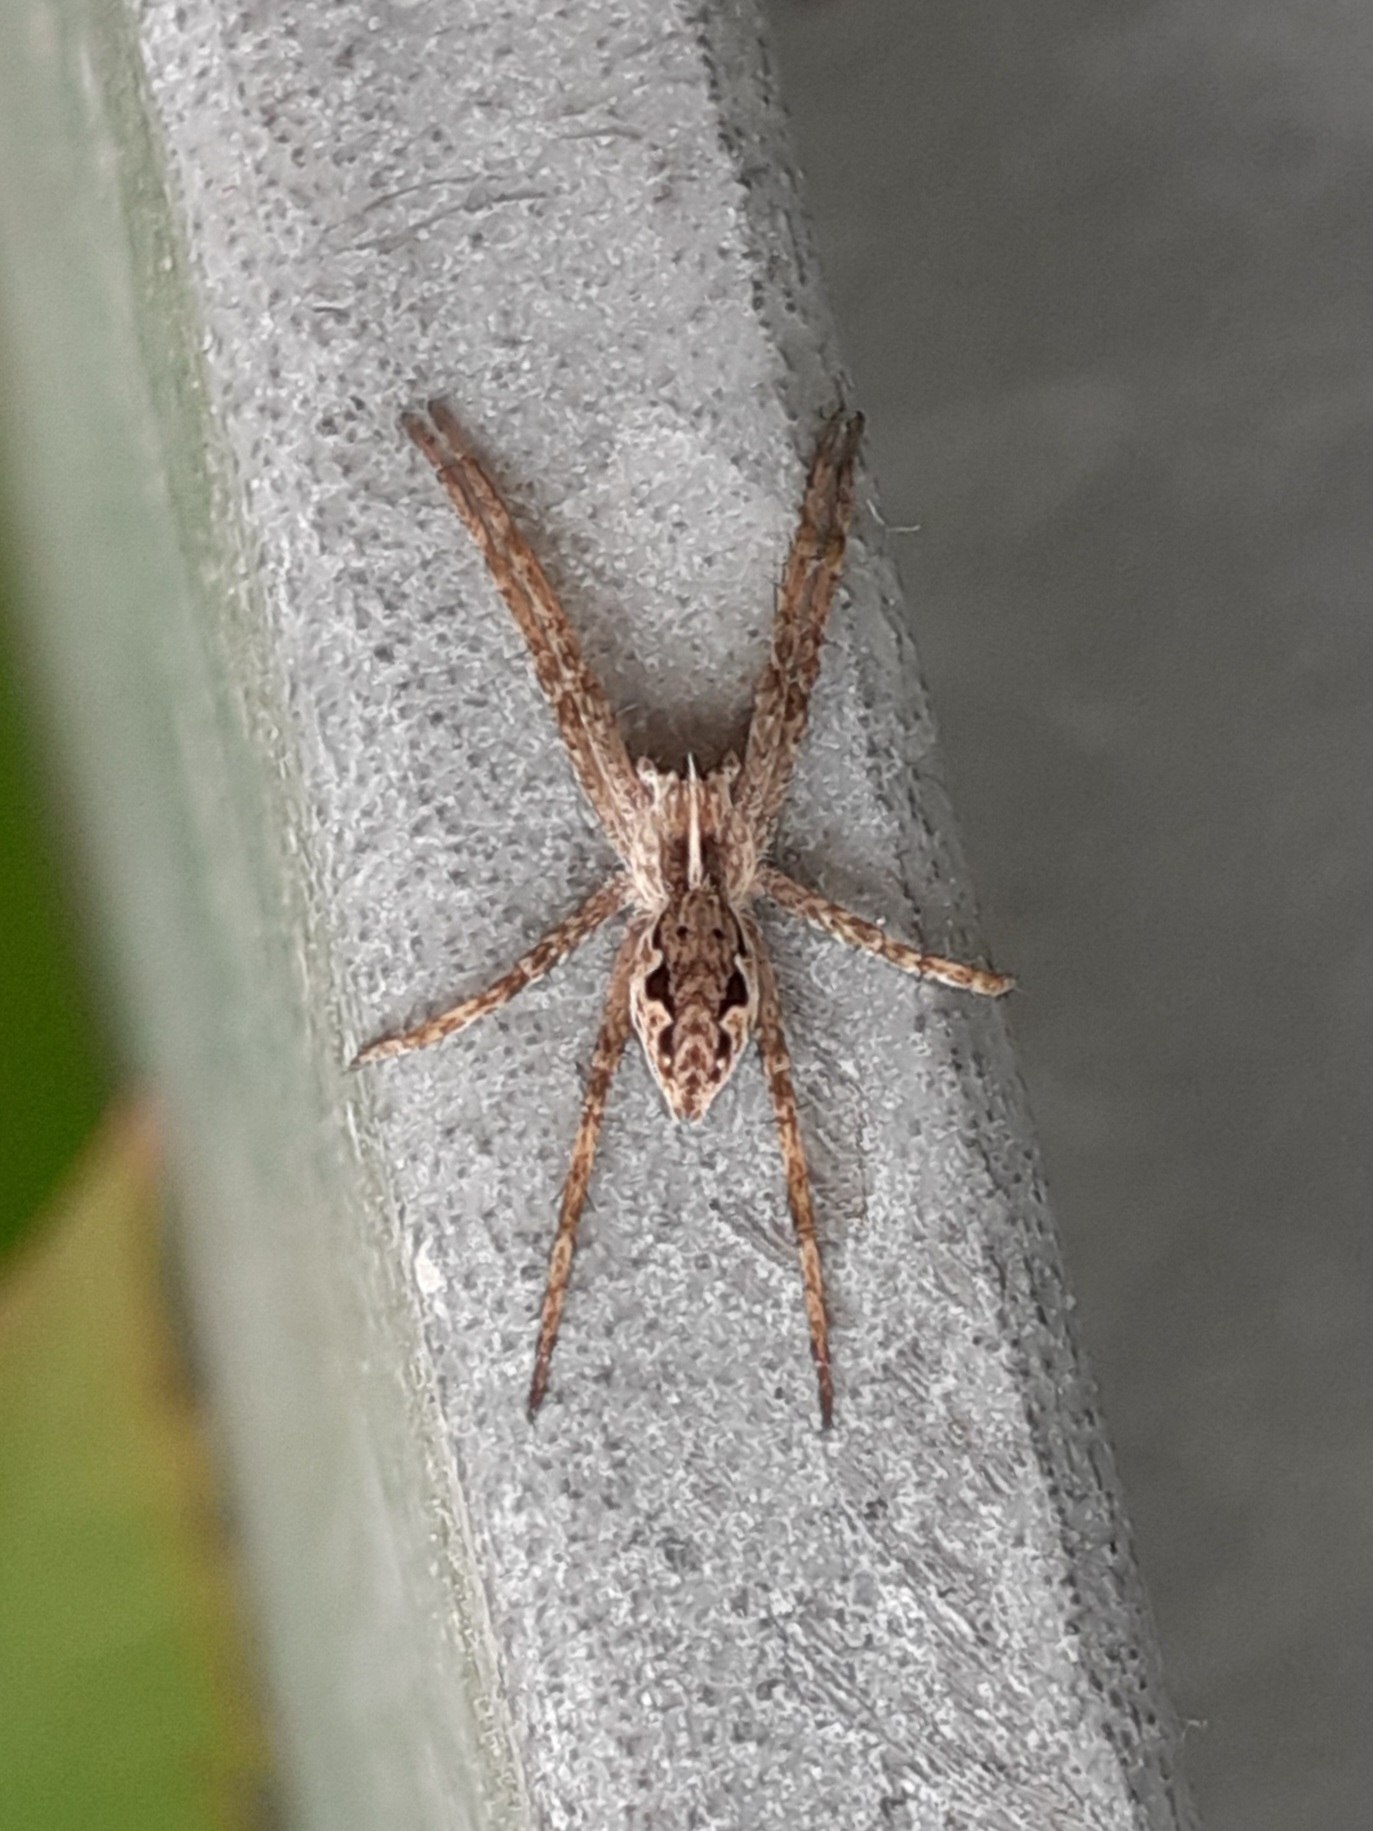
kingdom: Animalia
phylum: Arthropoda
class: Arachnida
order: Araneae
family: Pisauridae
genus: Pisaura
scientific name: Pisaura mirabilis
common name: Tent spider
